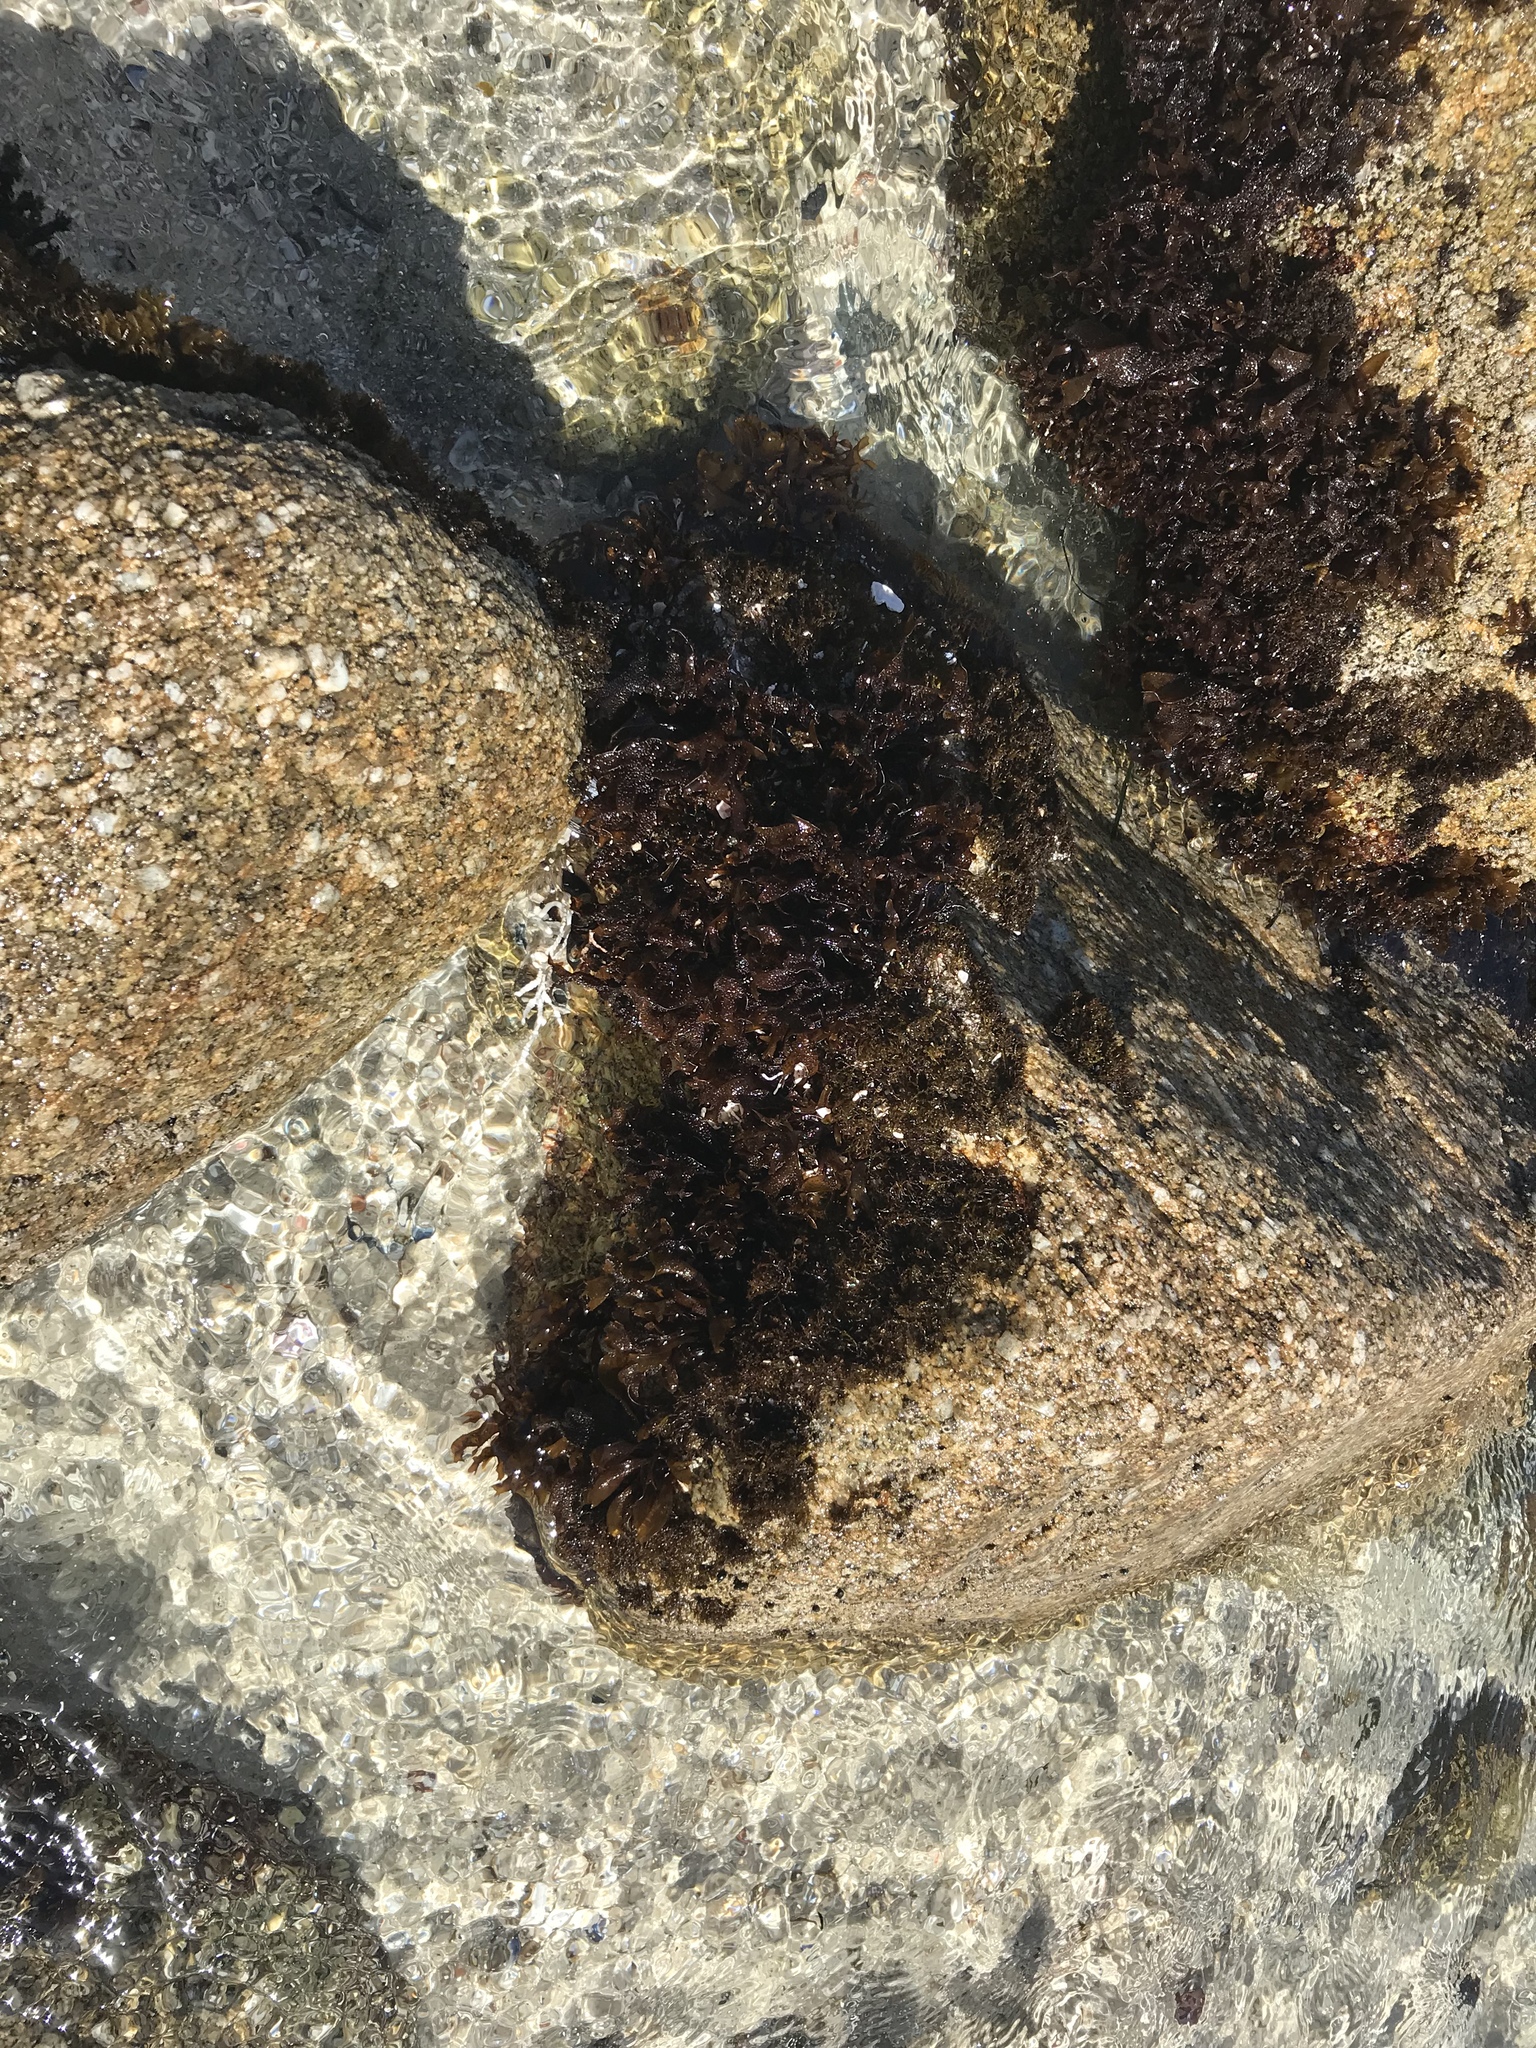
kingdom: Plantae
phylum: Rhodophyta
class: Florideophyceae
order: Gigartinales
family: Phyllophoraceae
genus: Mastocarpus
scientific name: Mastocarpus papillatus
